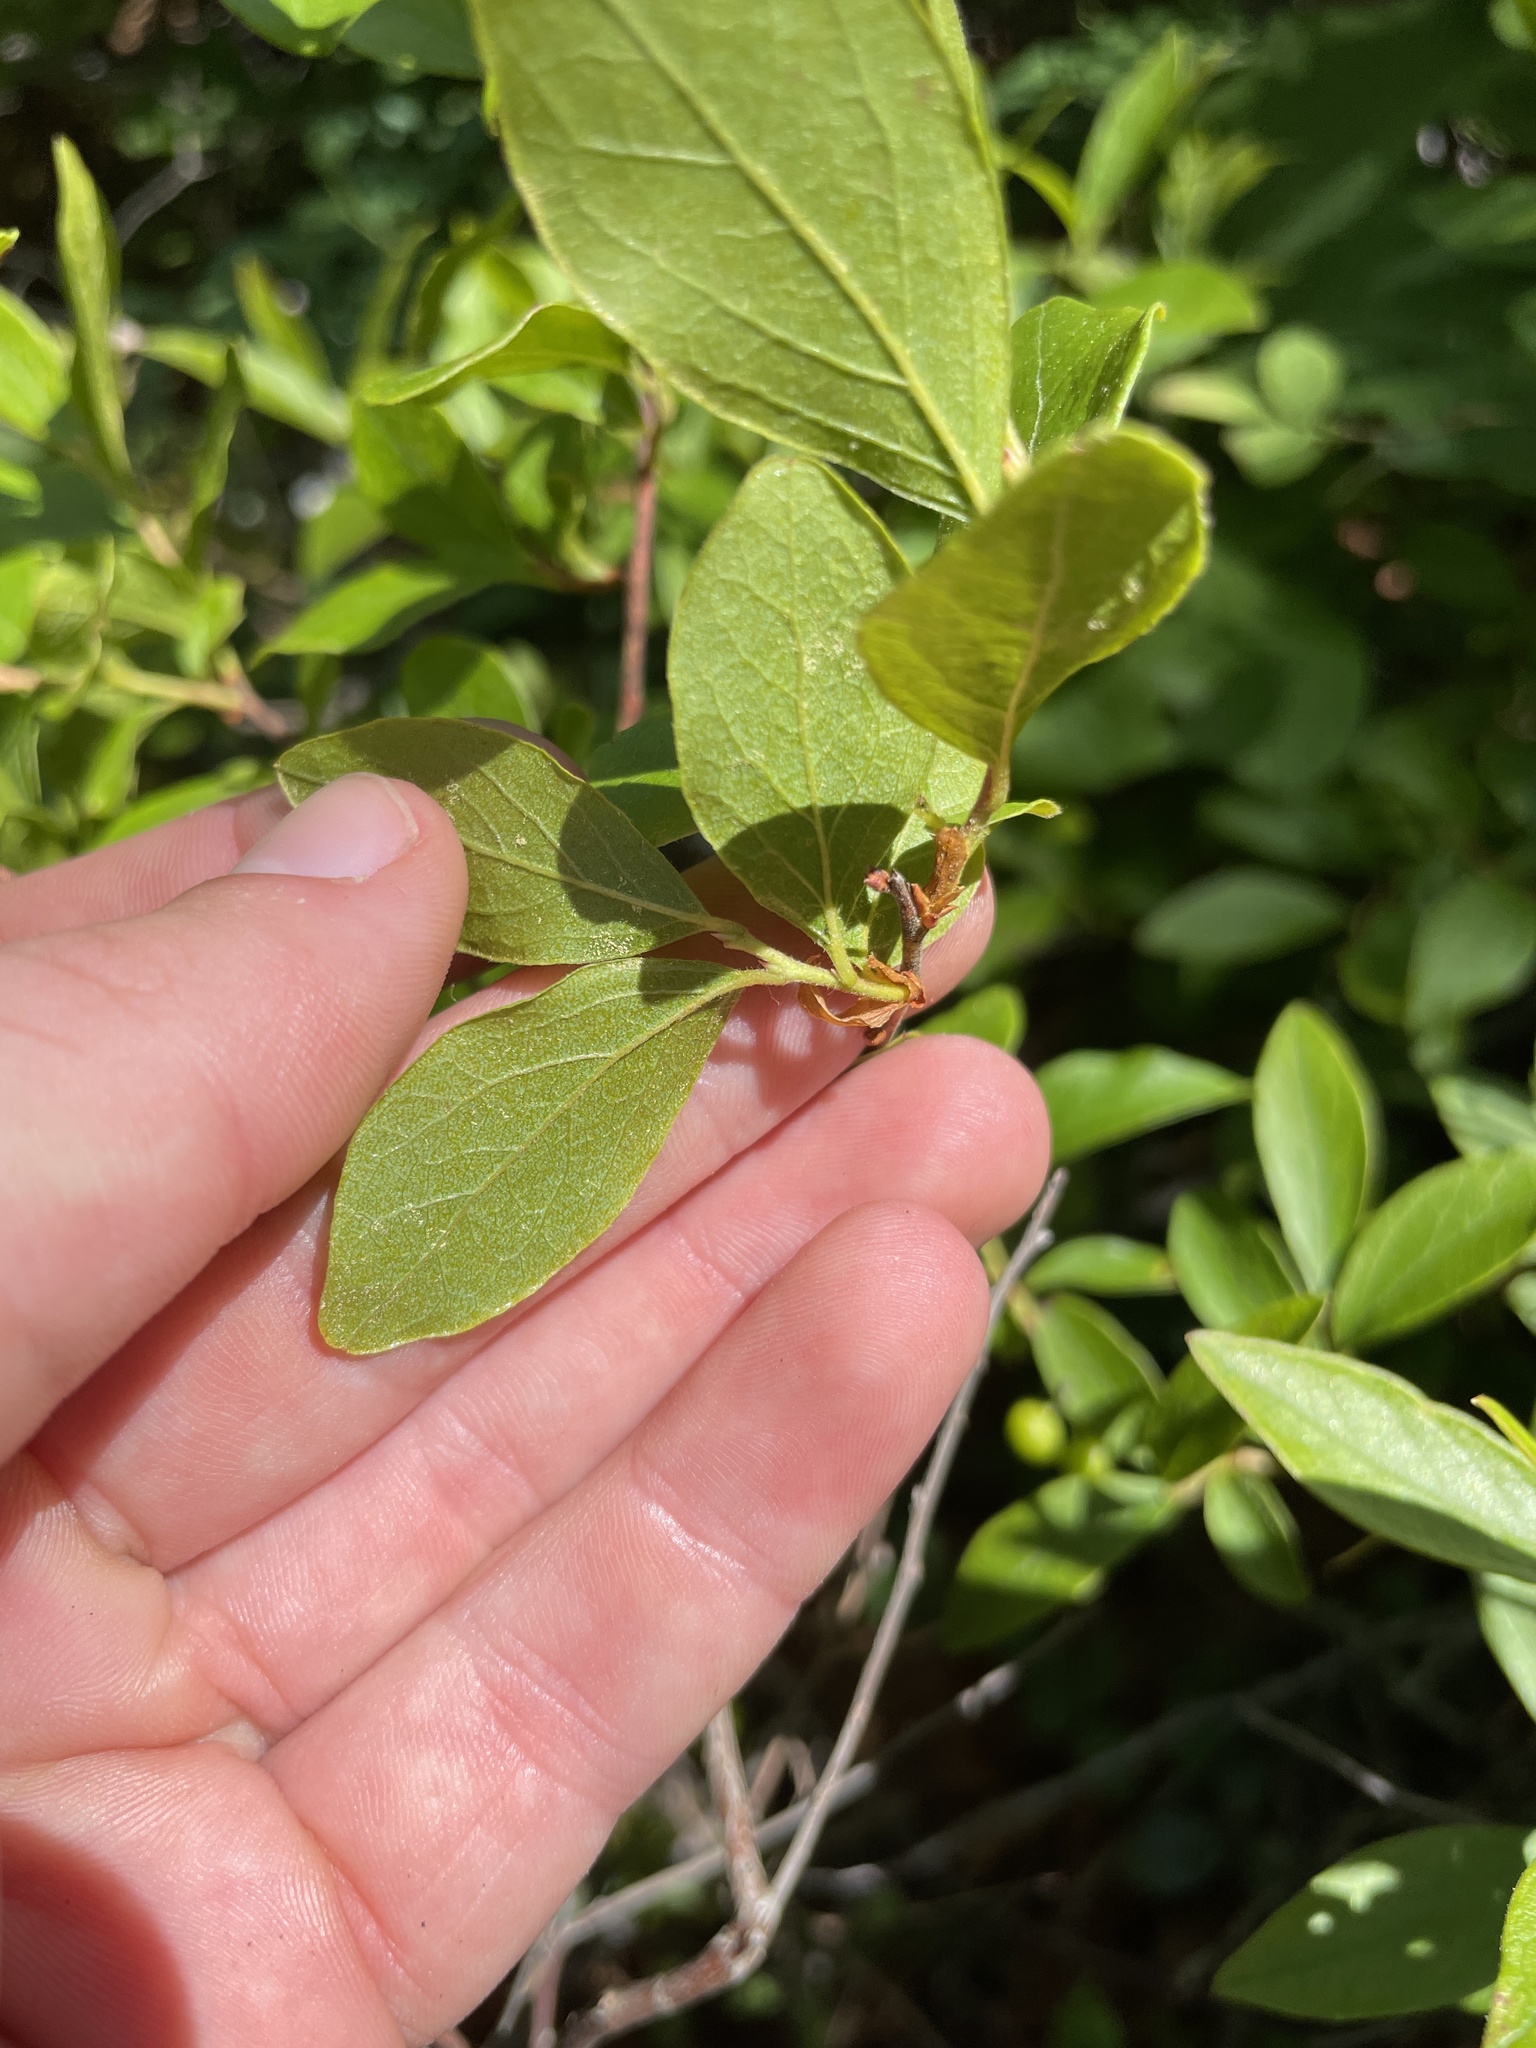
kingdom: Plantae
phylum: Tracheophyta
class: Magnoliopsida
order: Ericales
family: Ericaceae
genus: Gaylussacia
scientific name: Gaylussacia baccata
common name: Black huckleberry
